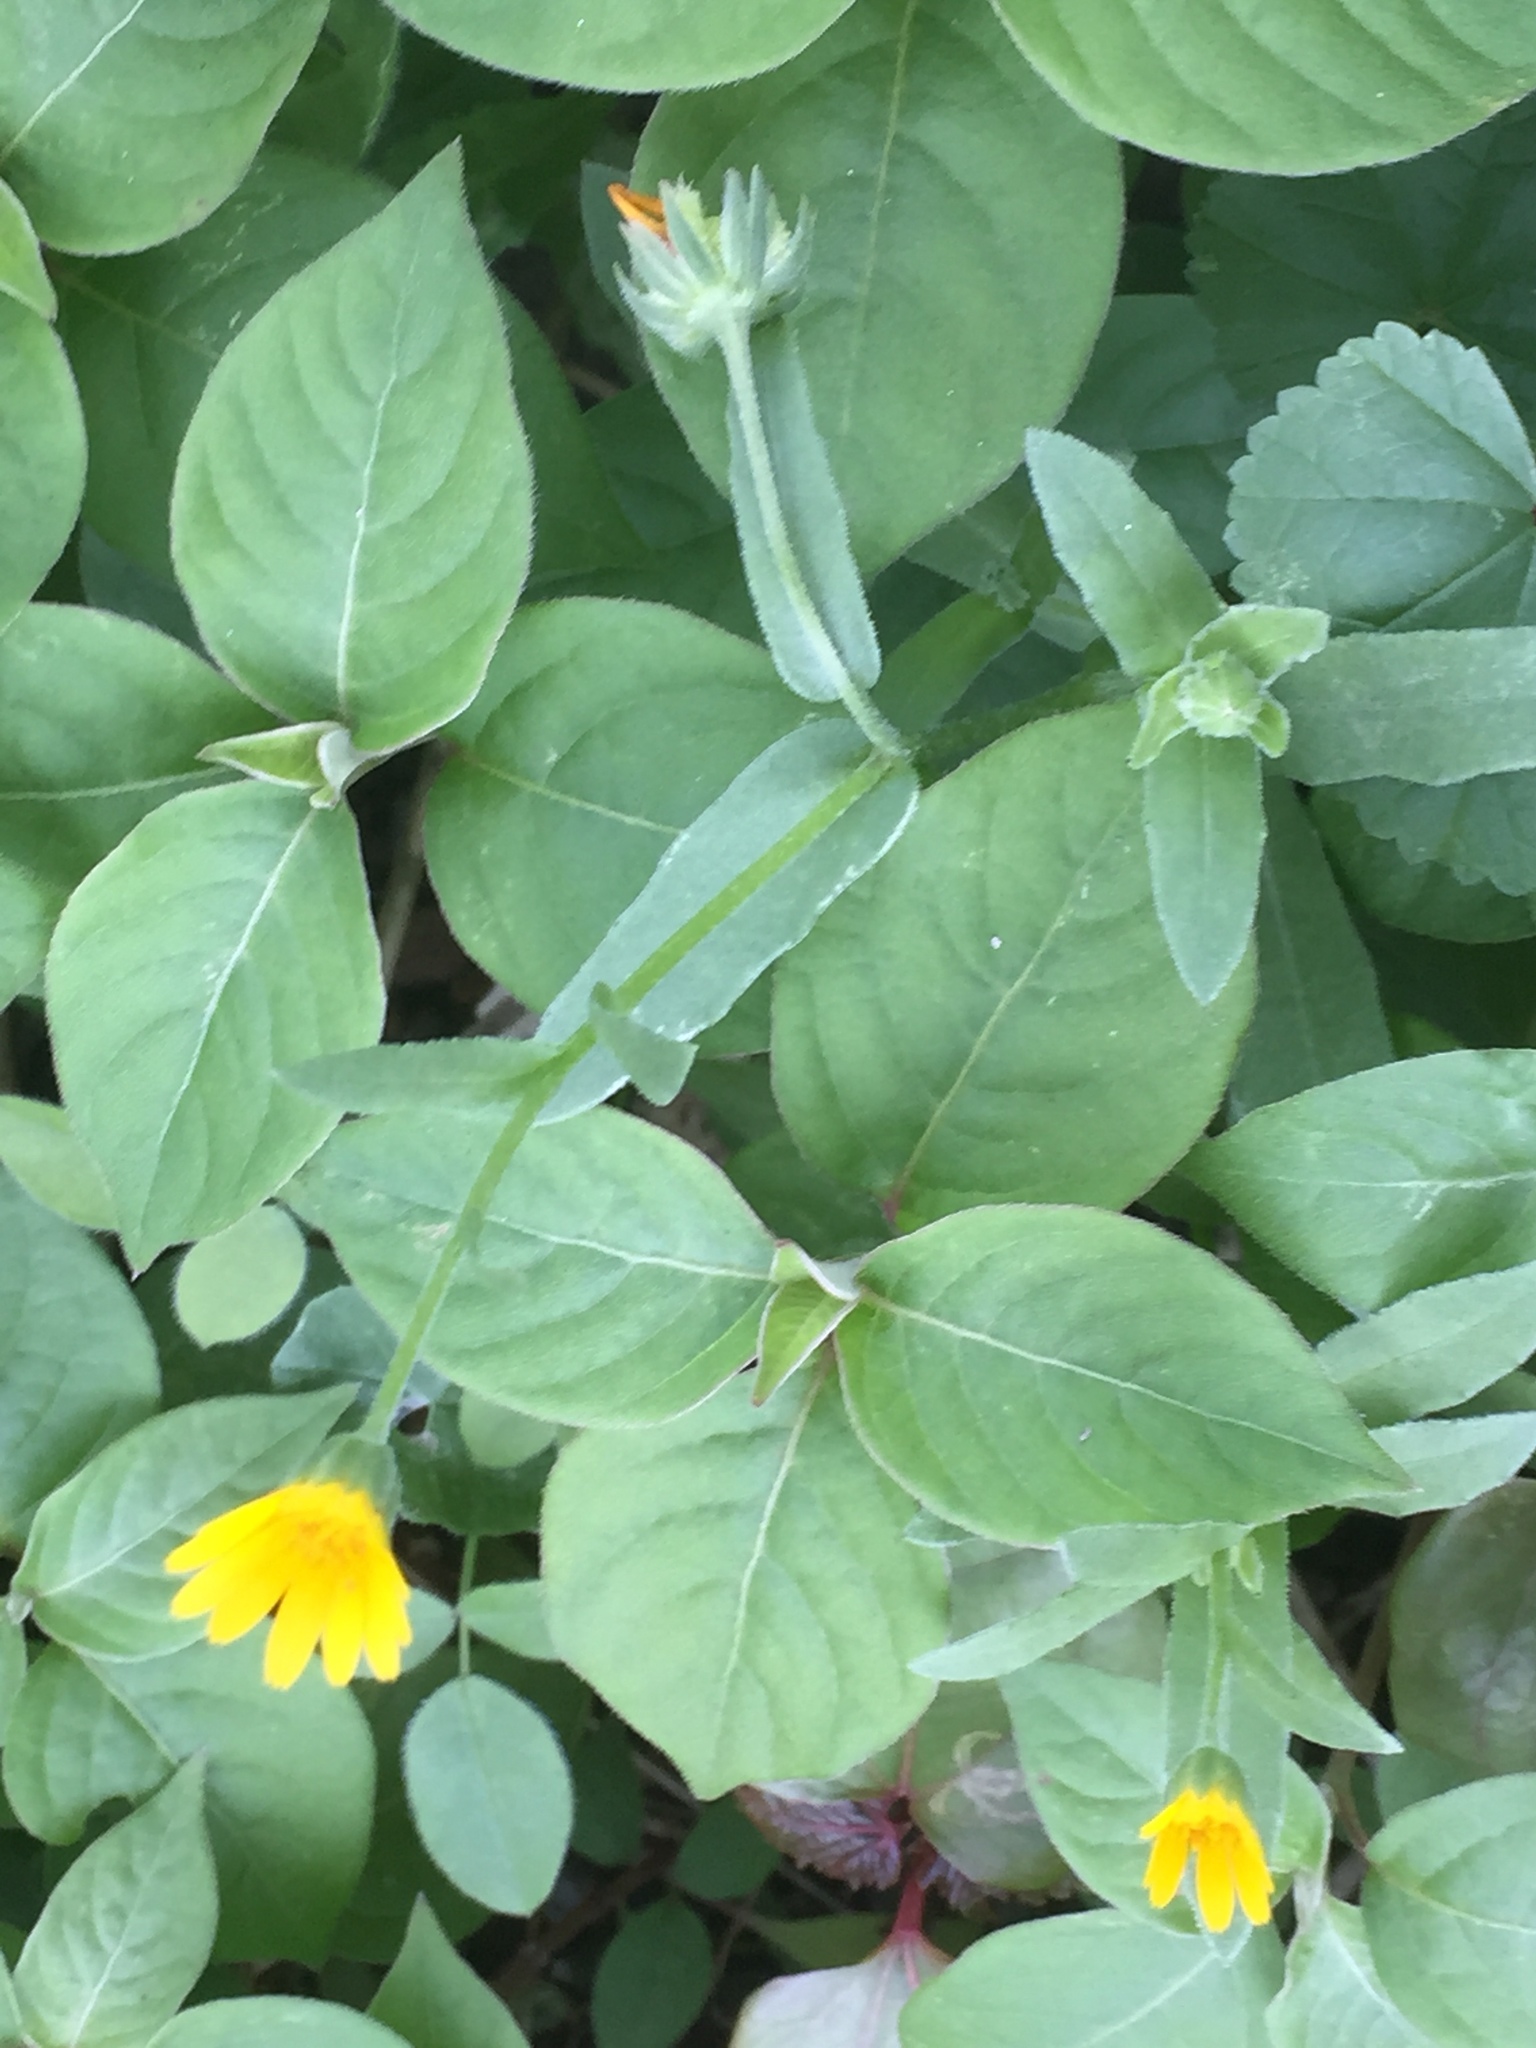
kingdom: Plantae
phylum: Tracheophyta
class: Magnoliopsida
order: Caryophyllales
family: Amaranthaceae
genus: Achyranthes
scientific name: Achyranthes aspera
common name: Devil's horsewhip
